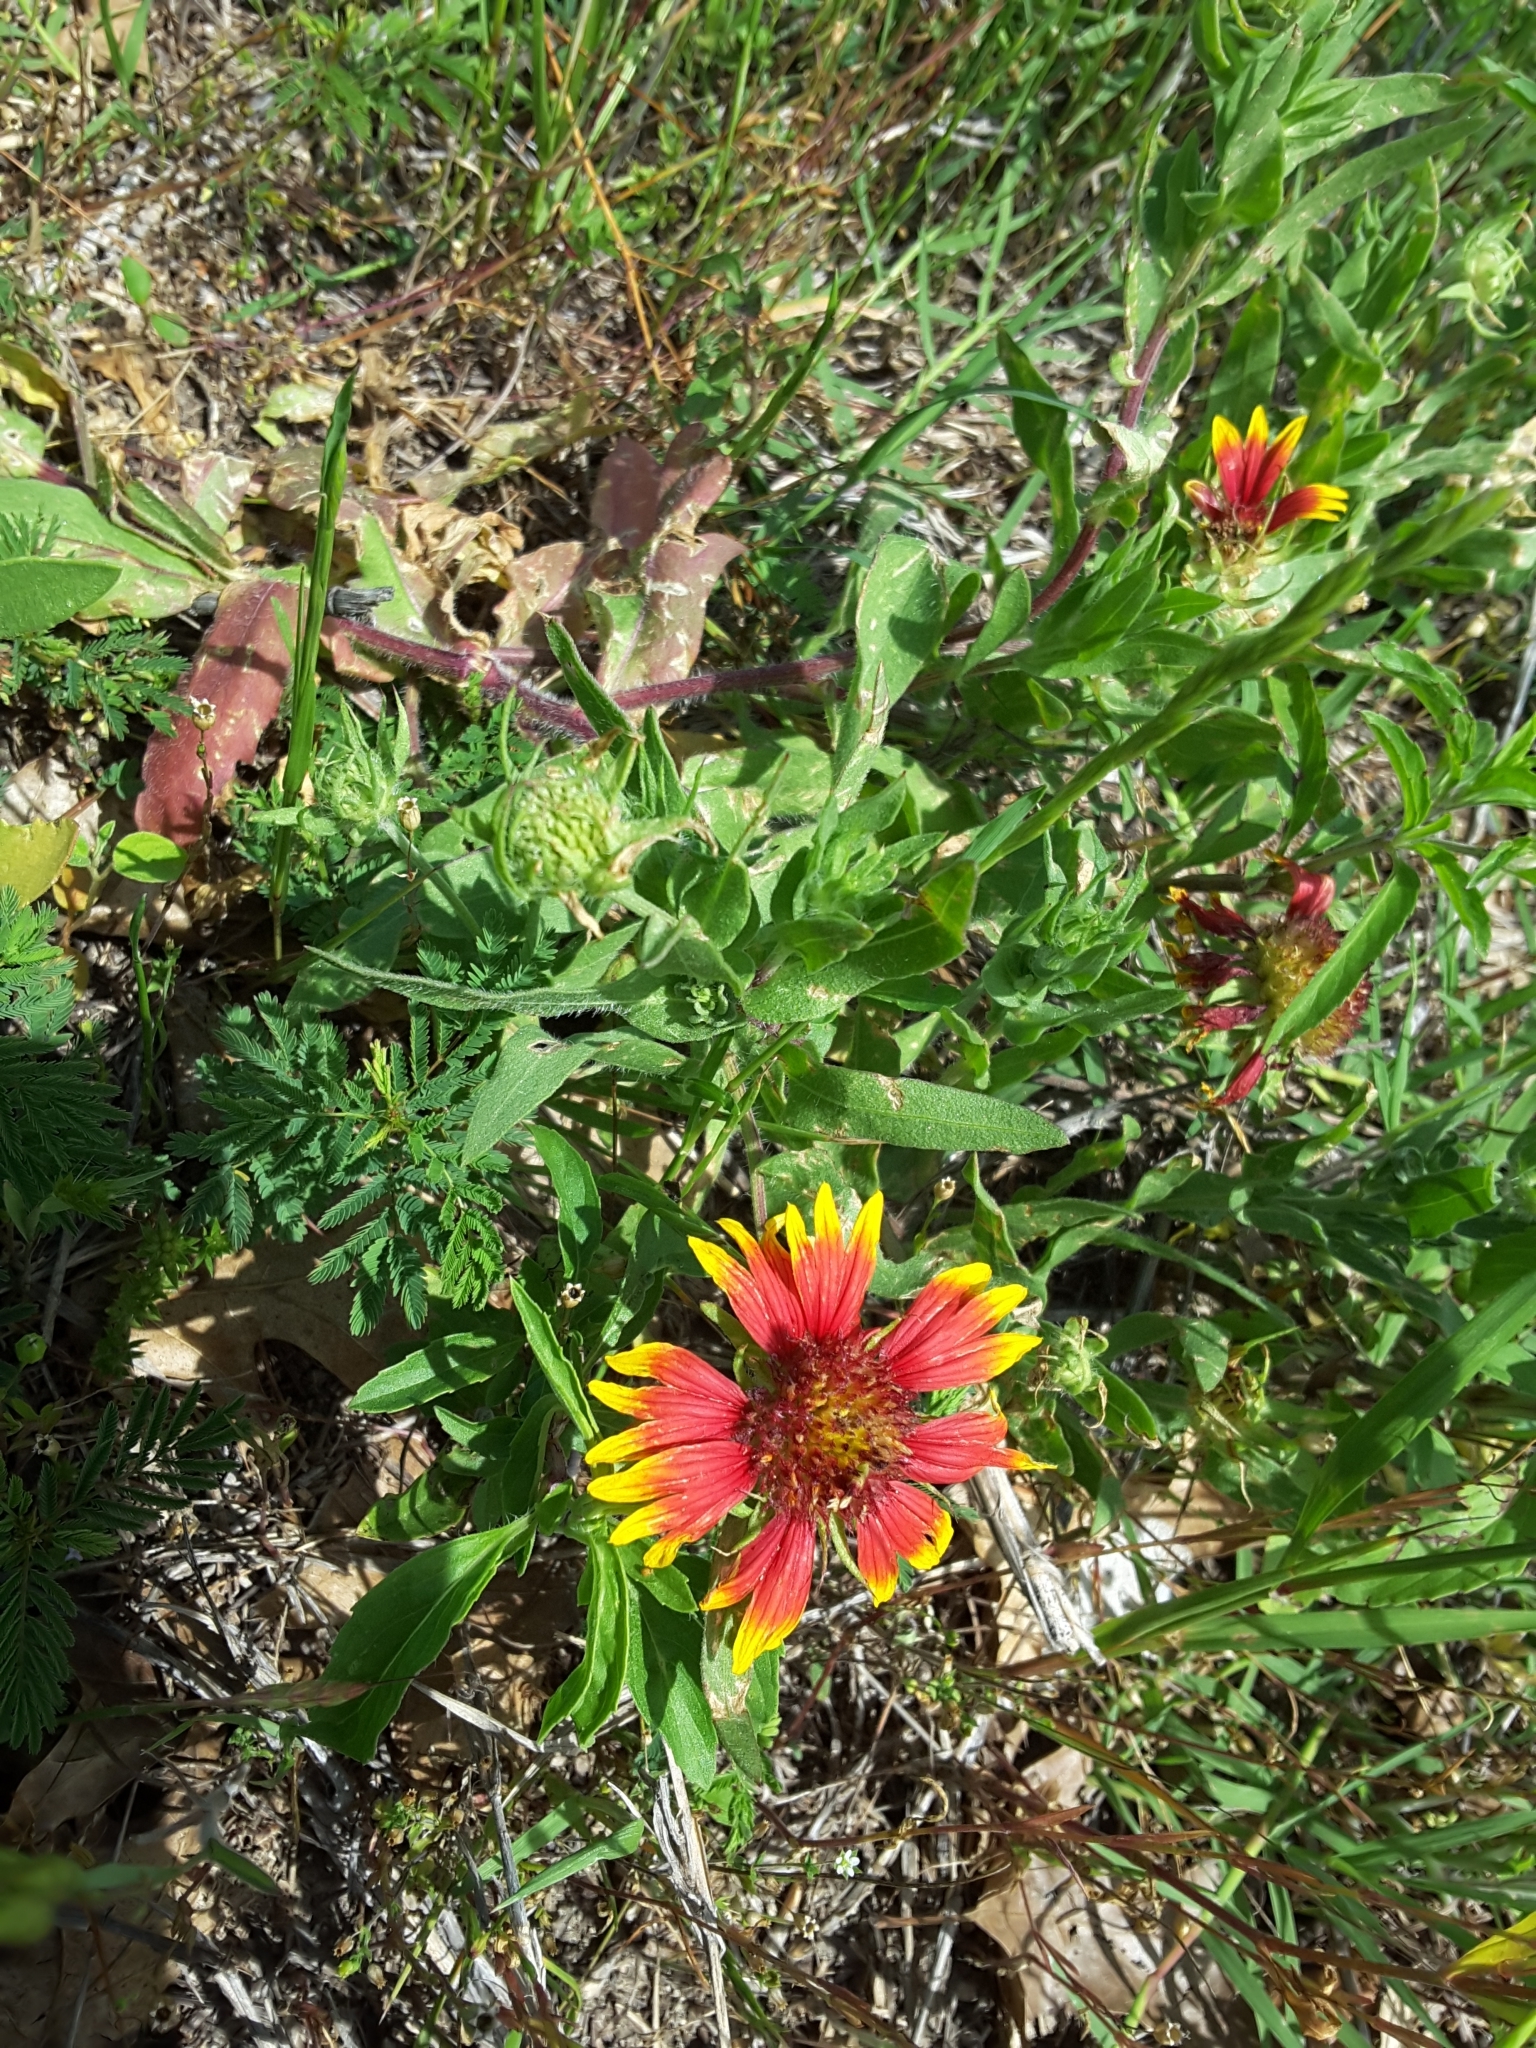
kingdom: Plantae
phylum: Tracheophyta
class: Magnoliopsida
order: Asterales
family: Asteraceae
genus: Gaillardia
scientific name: Gaillardia pulchella
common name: Firewheel
